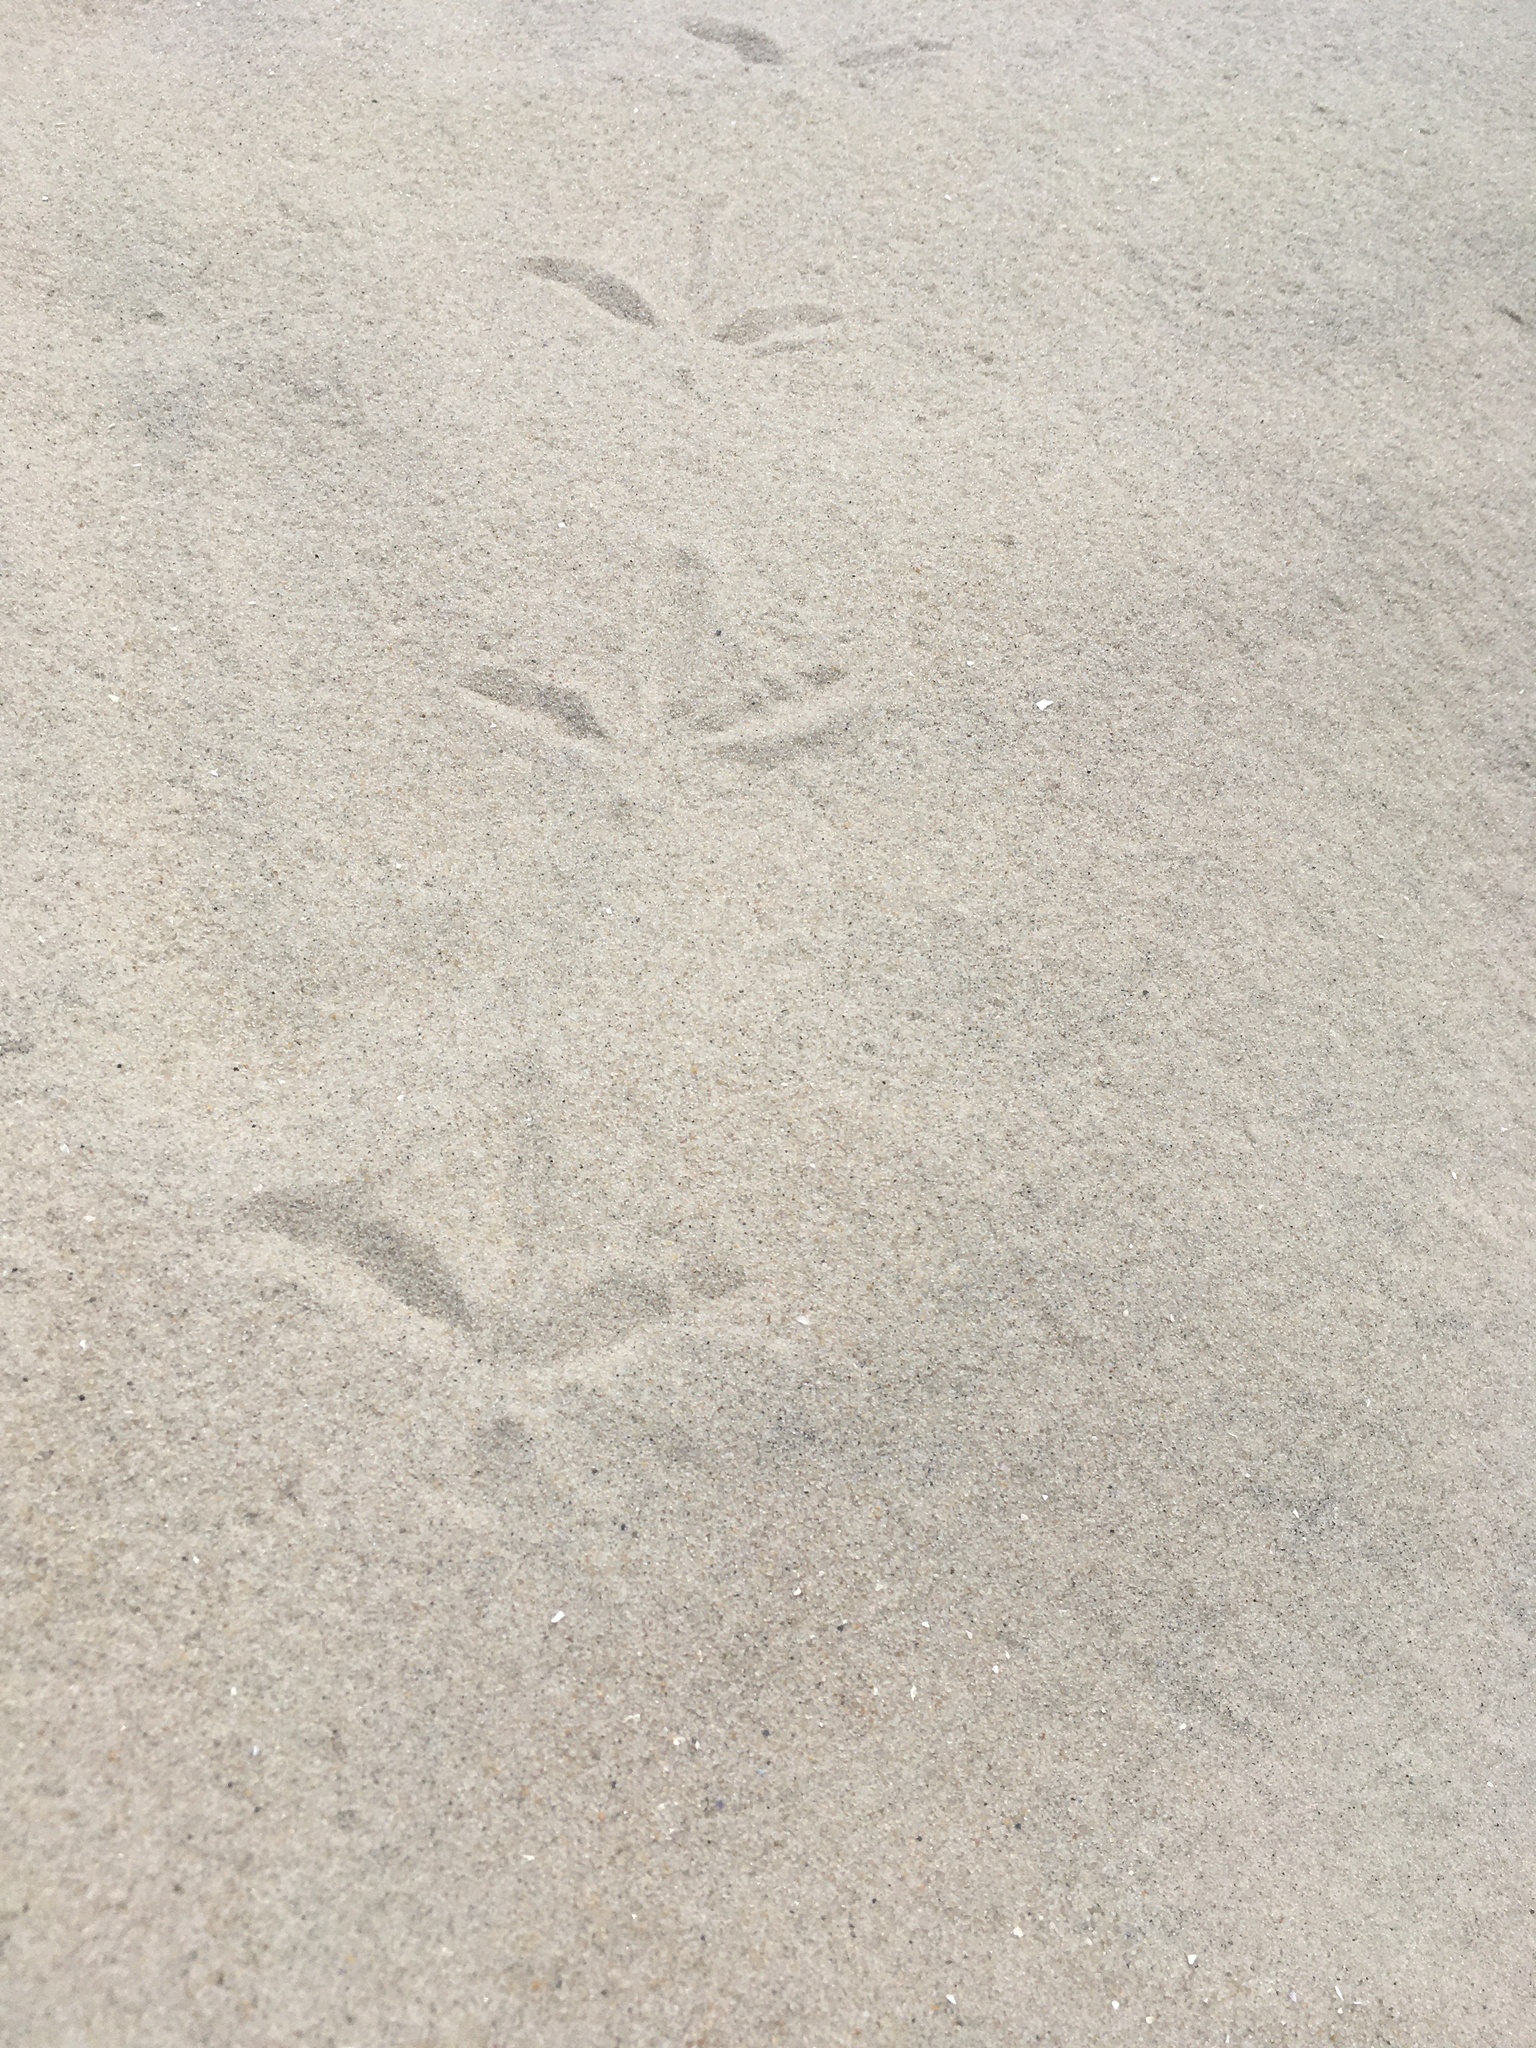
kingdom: Animalia
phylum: Chordata
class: Aves
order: Gruiformes
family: Rallidae
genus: Rallus
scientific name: Rallus crepitans
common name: Clapper rail
